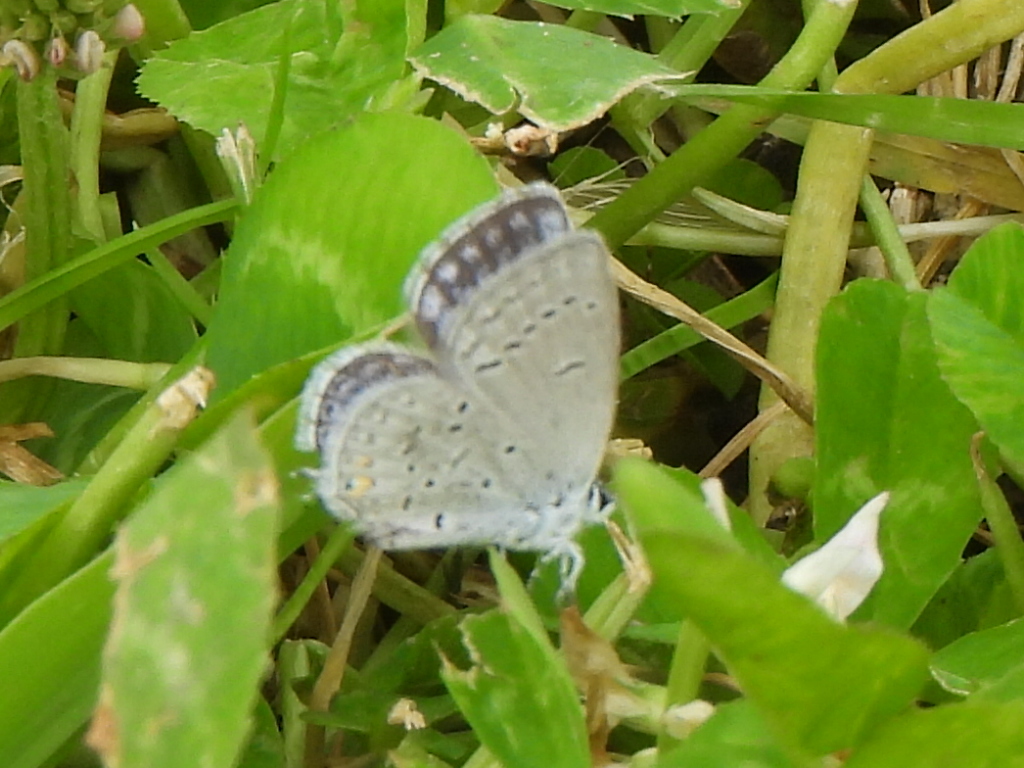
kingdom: Animalia
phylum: Arthropoda
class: Insecta
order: Lepidoptera
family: Lycaenidae
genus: Elkalyce
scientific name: Elkalyce comyntas
